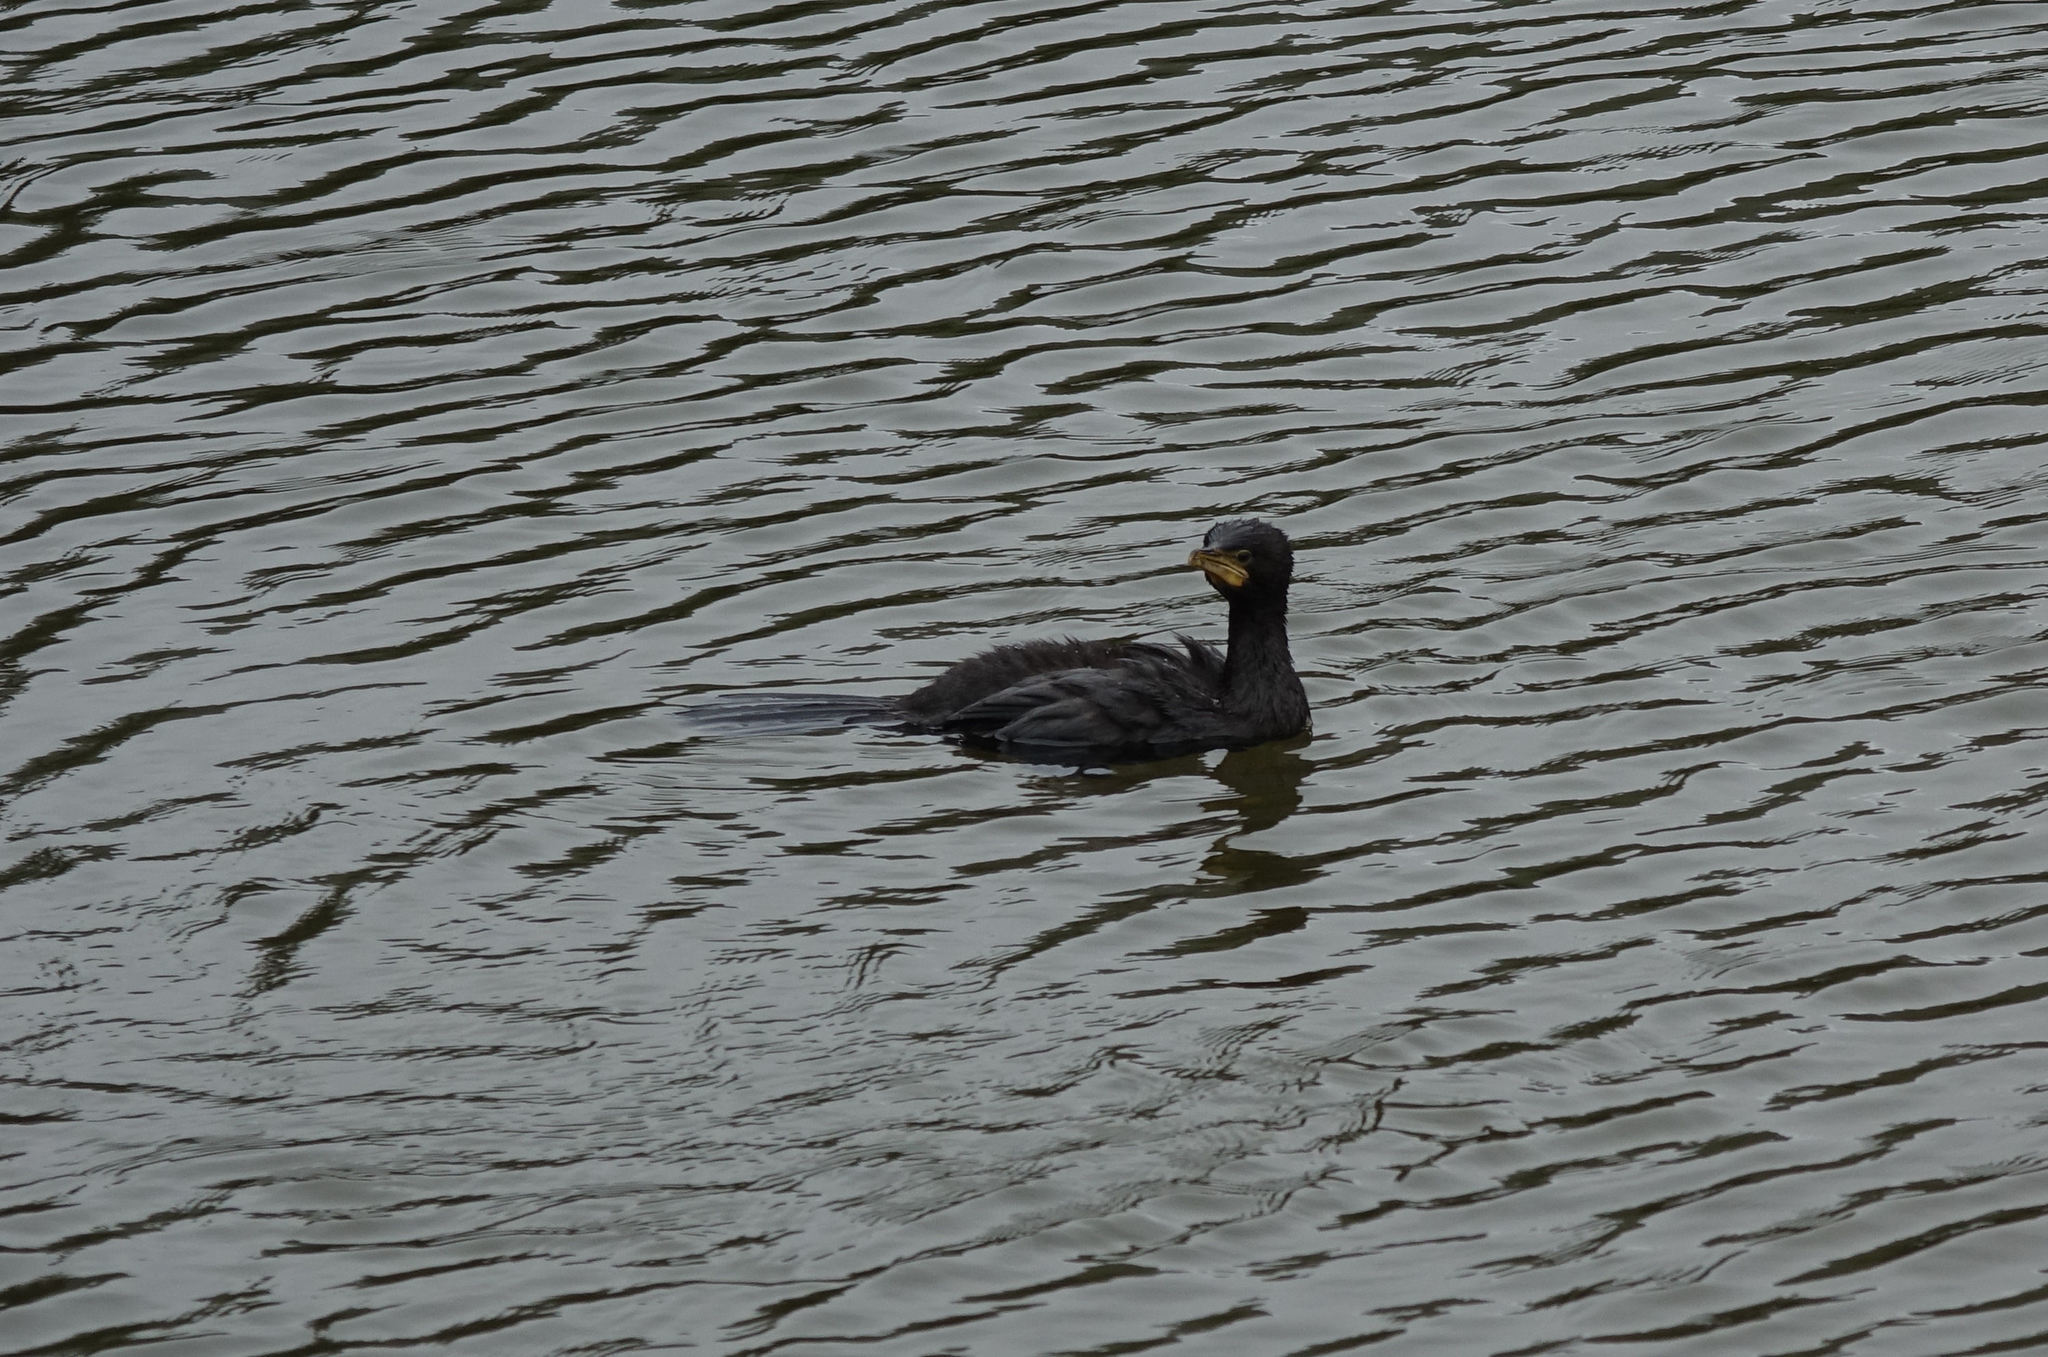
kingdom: Animalia
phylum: Chordata
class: Aves
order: Suliformes
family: Phalacrocoracidae
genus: Microcarbo
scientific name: Microcarbo melanoleucos
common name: Little pied cormorant
